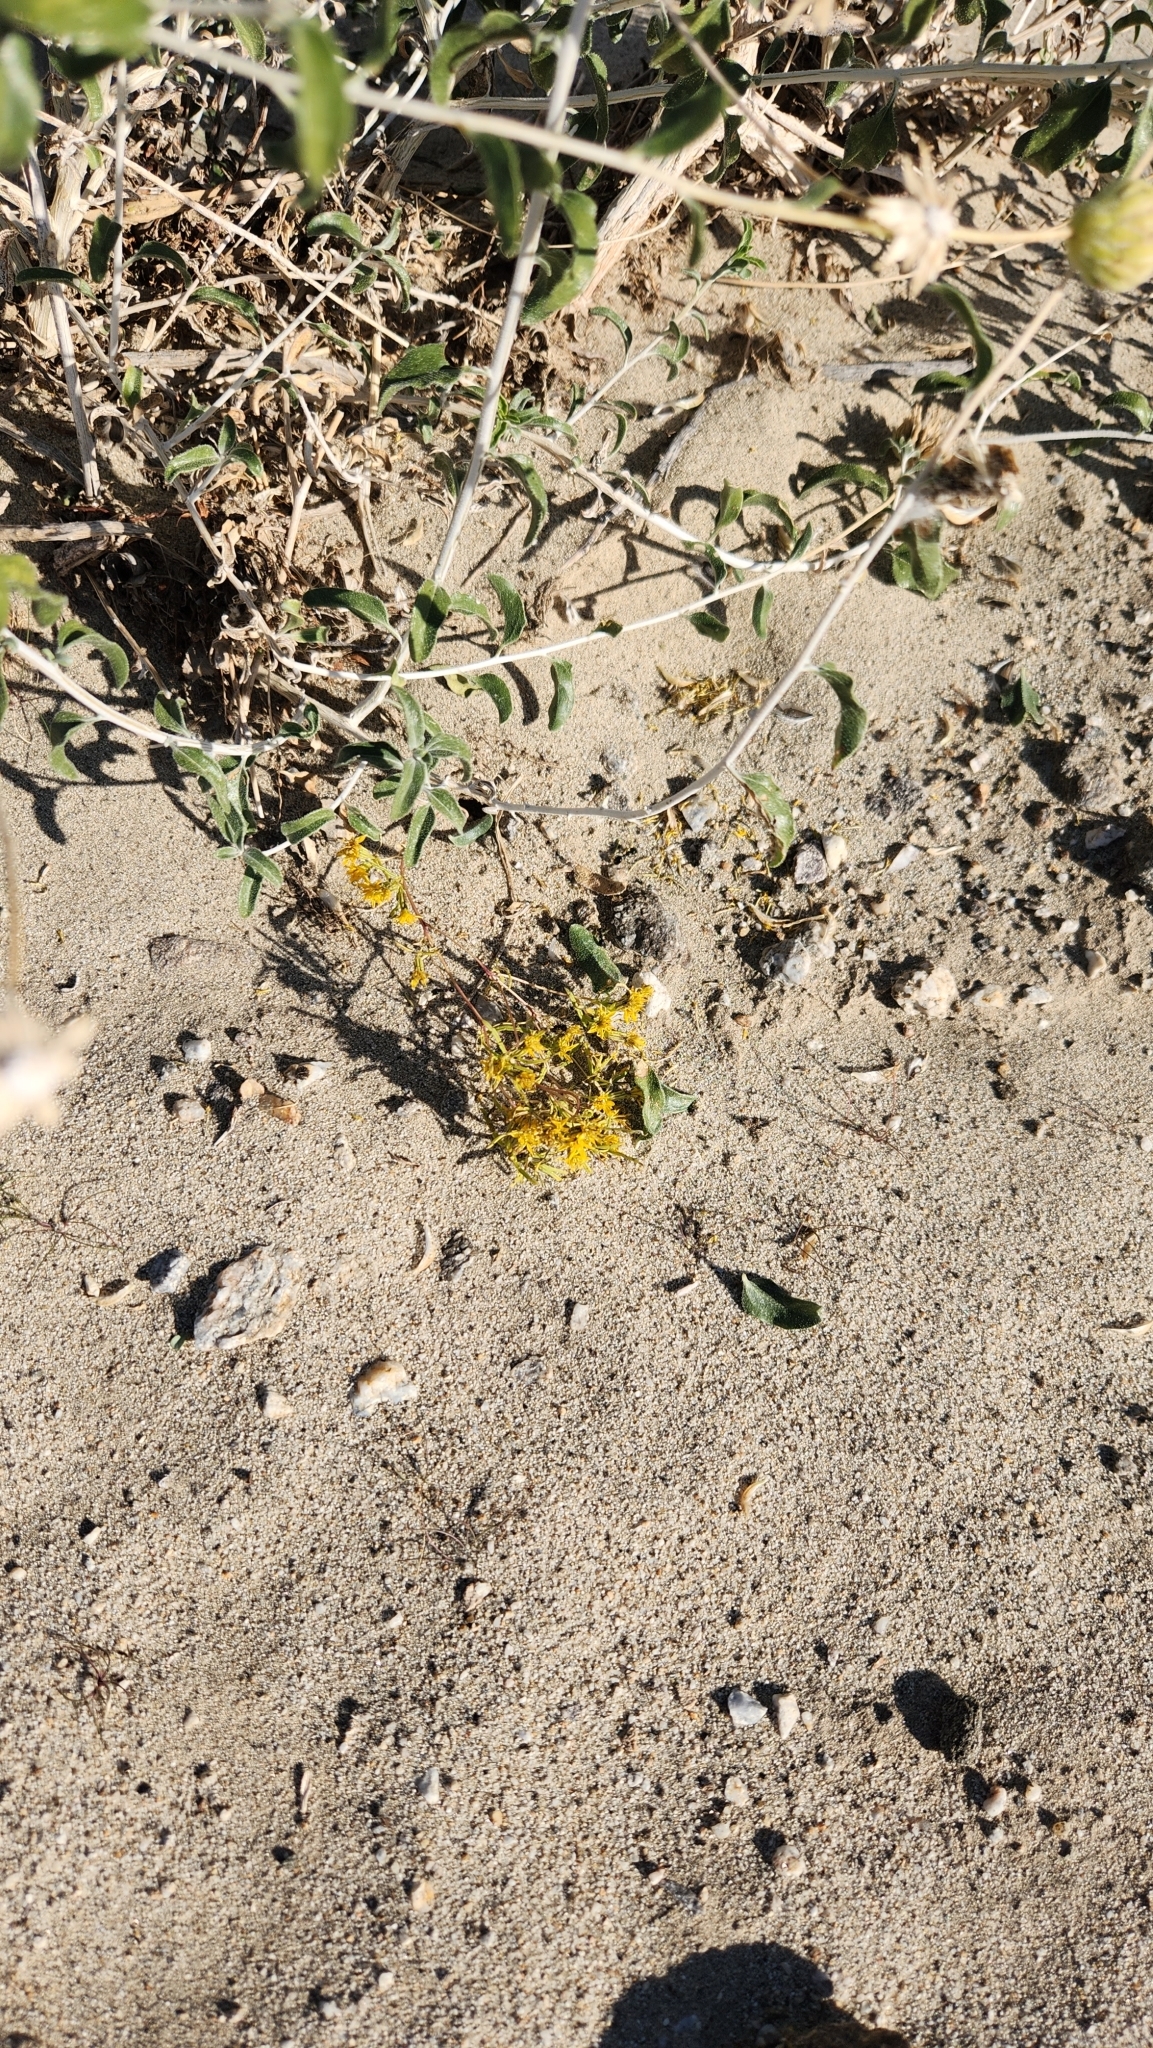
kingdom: Plantae
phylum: Tracheophyta
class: Magnoliopsida
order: Asterales
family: Asteraceae
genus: Pectis
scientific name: Pectis papposa
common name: Many-bristle chinchweed
